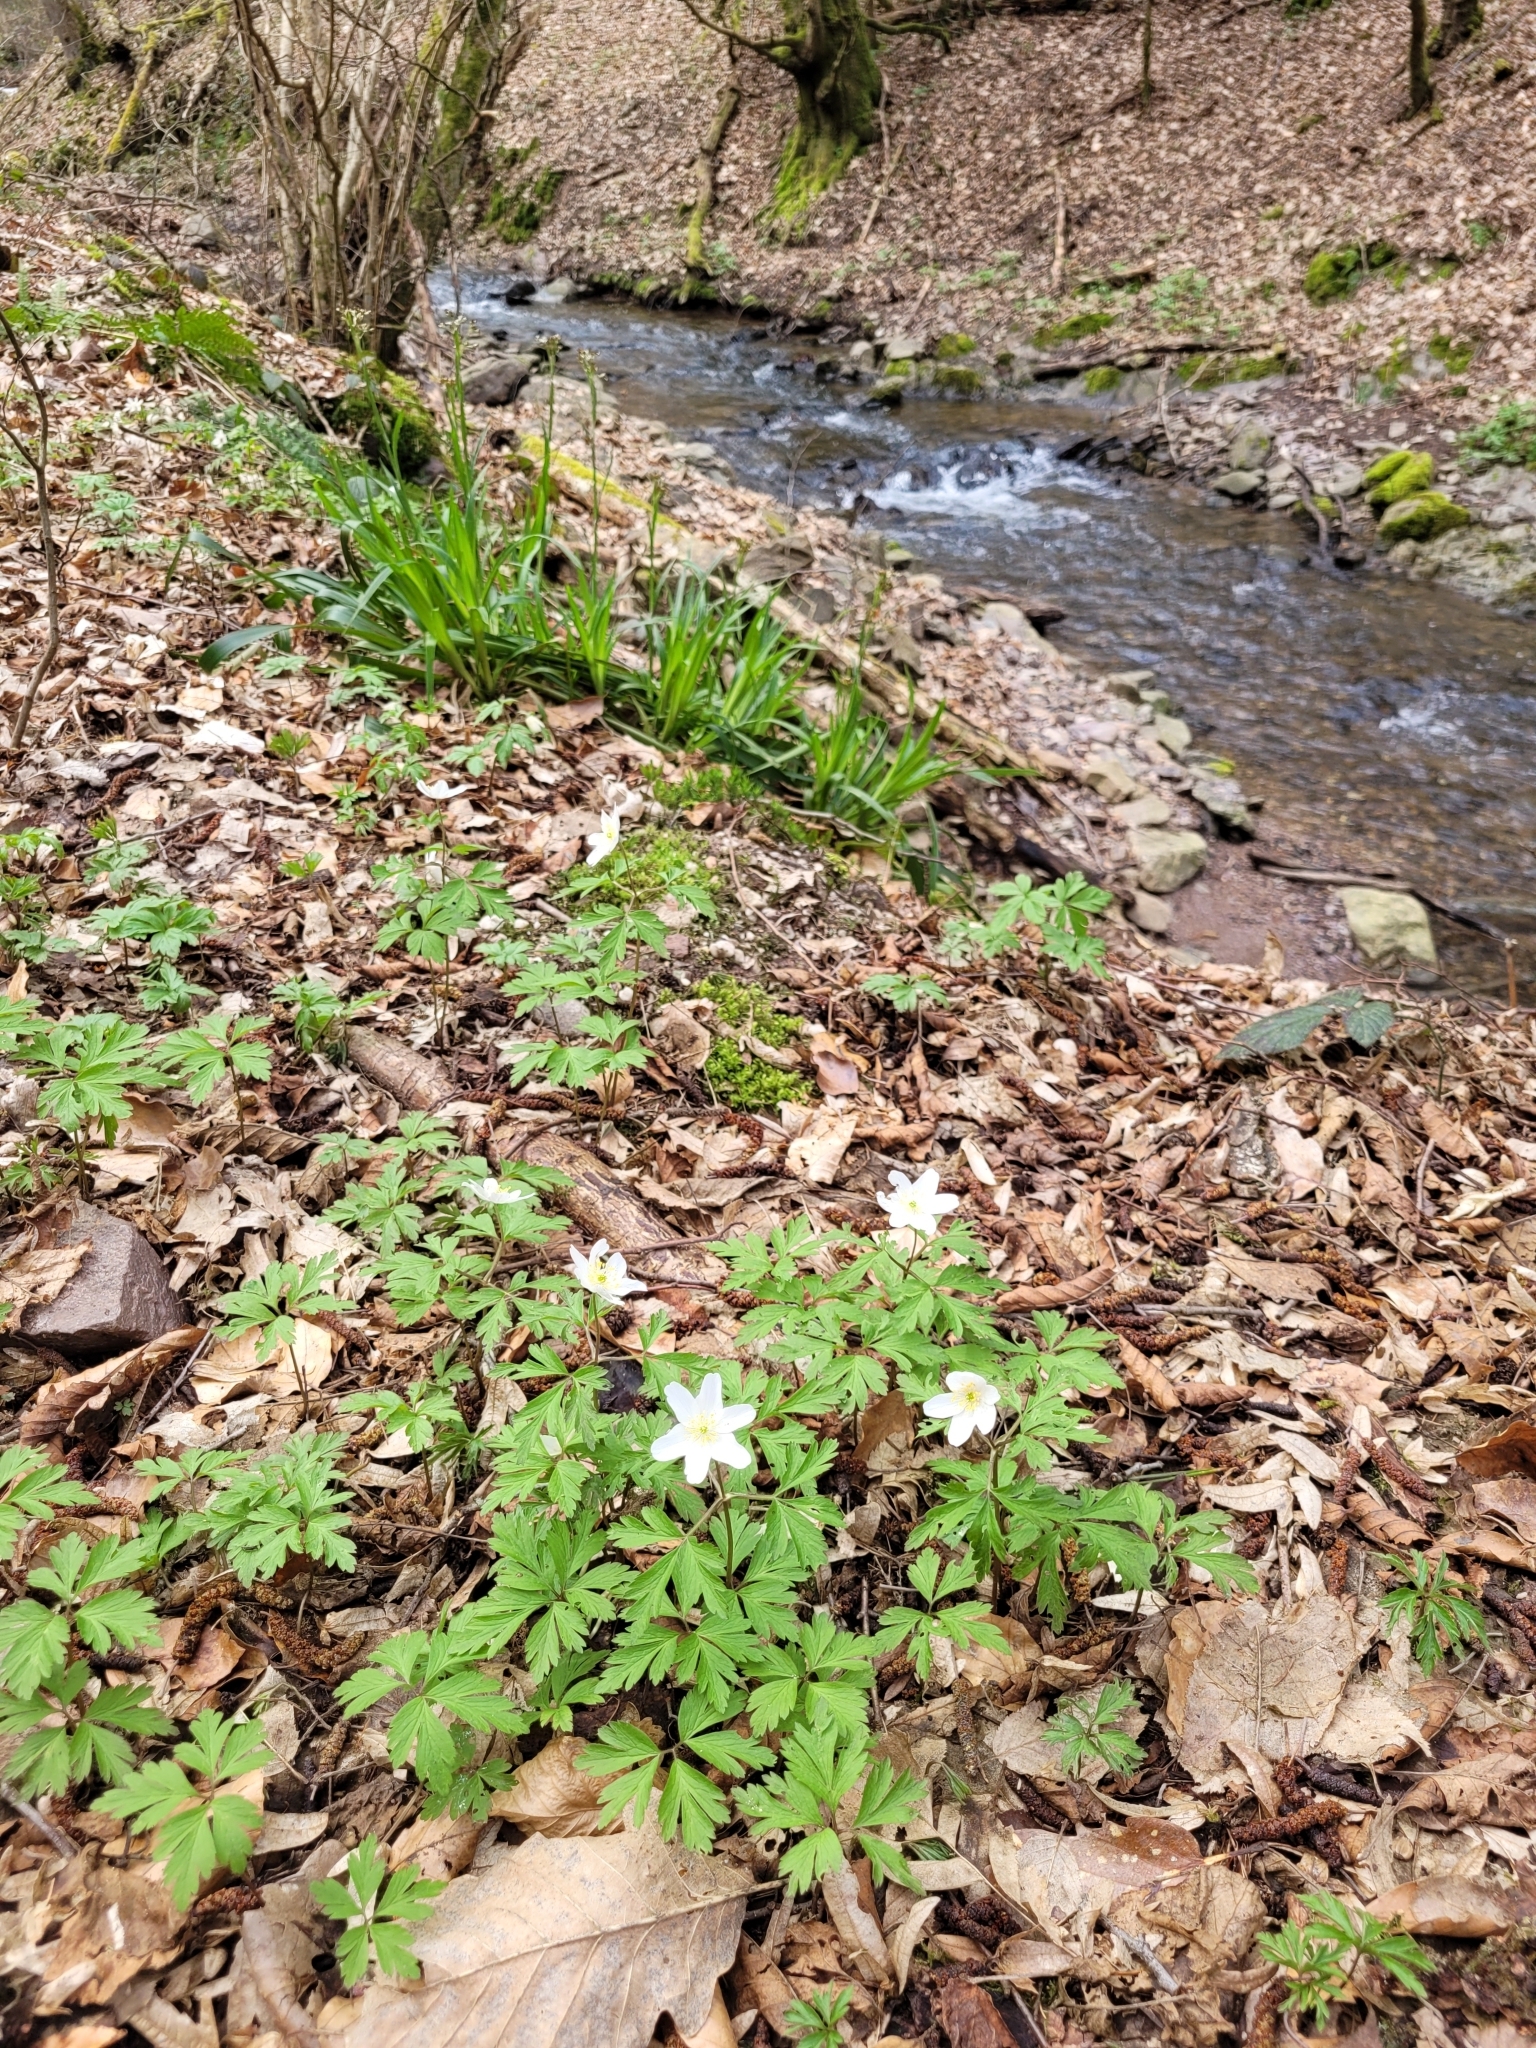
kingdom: Plantae
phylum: Tracheophyta
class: Magnoliopsida
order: Ranunculales
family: Ranunculaceae
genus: Anemone
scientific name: Anemone nemorosa
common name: Wood anemone
